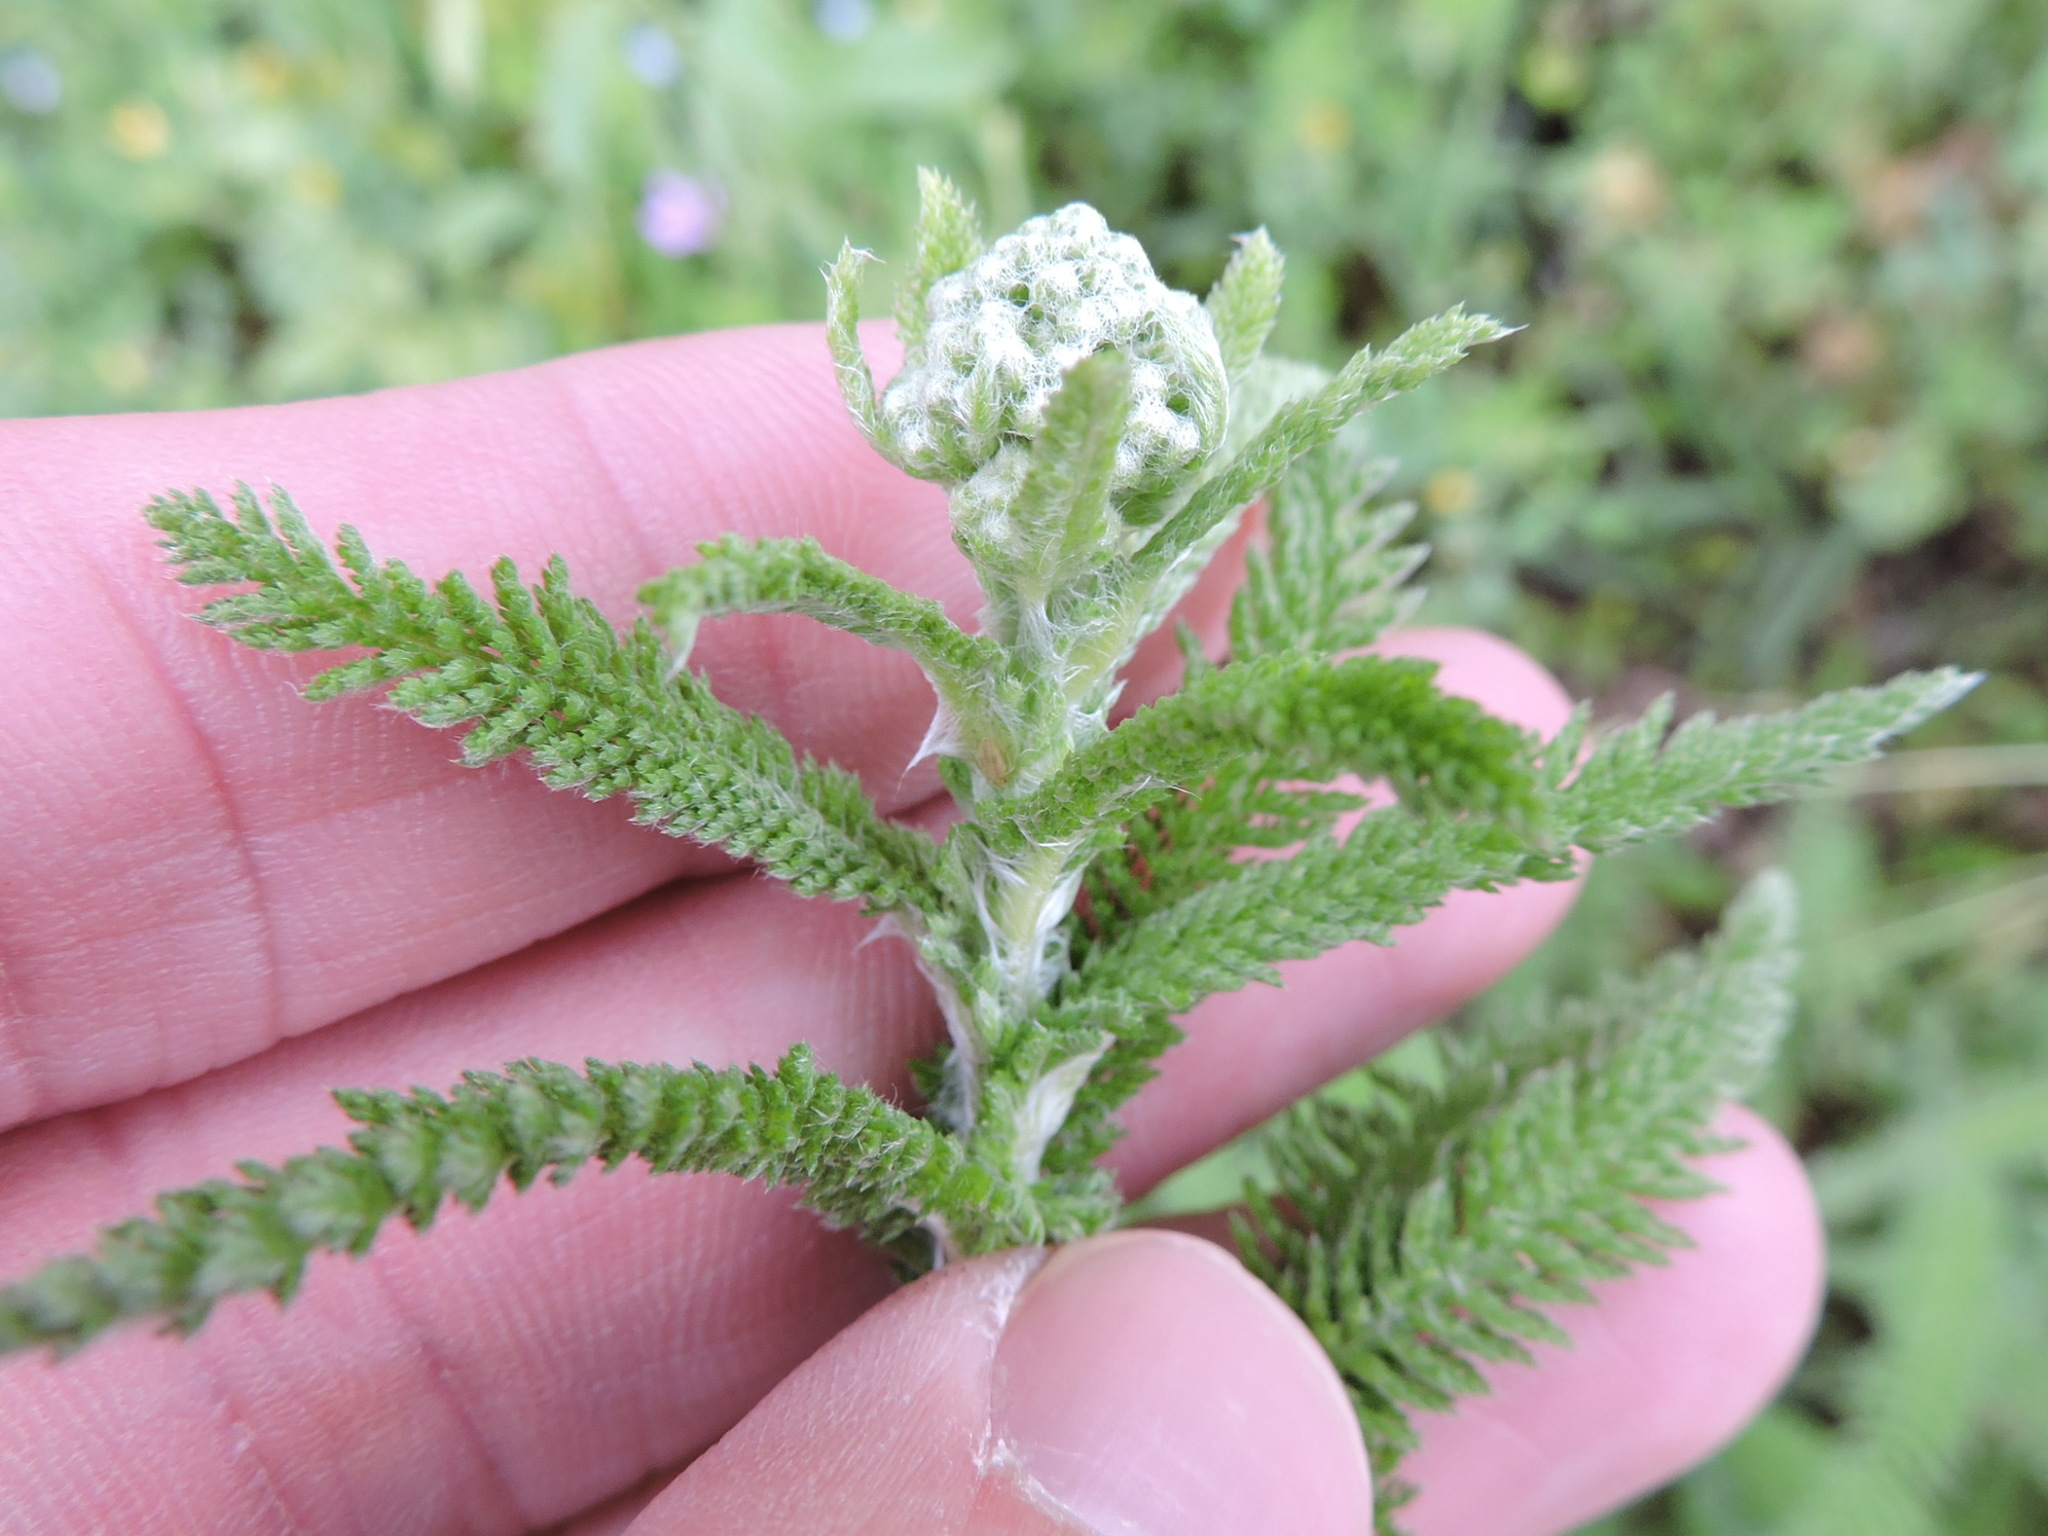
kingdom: Plantae
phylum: Tracheophyta
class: Magnoliopsida
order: Asterales
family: Asteraceae
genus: Achillea
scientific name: Achillea millefolium
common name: Yarrow
